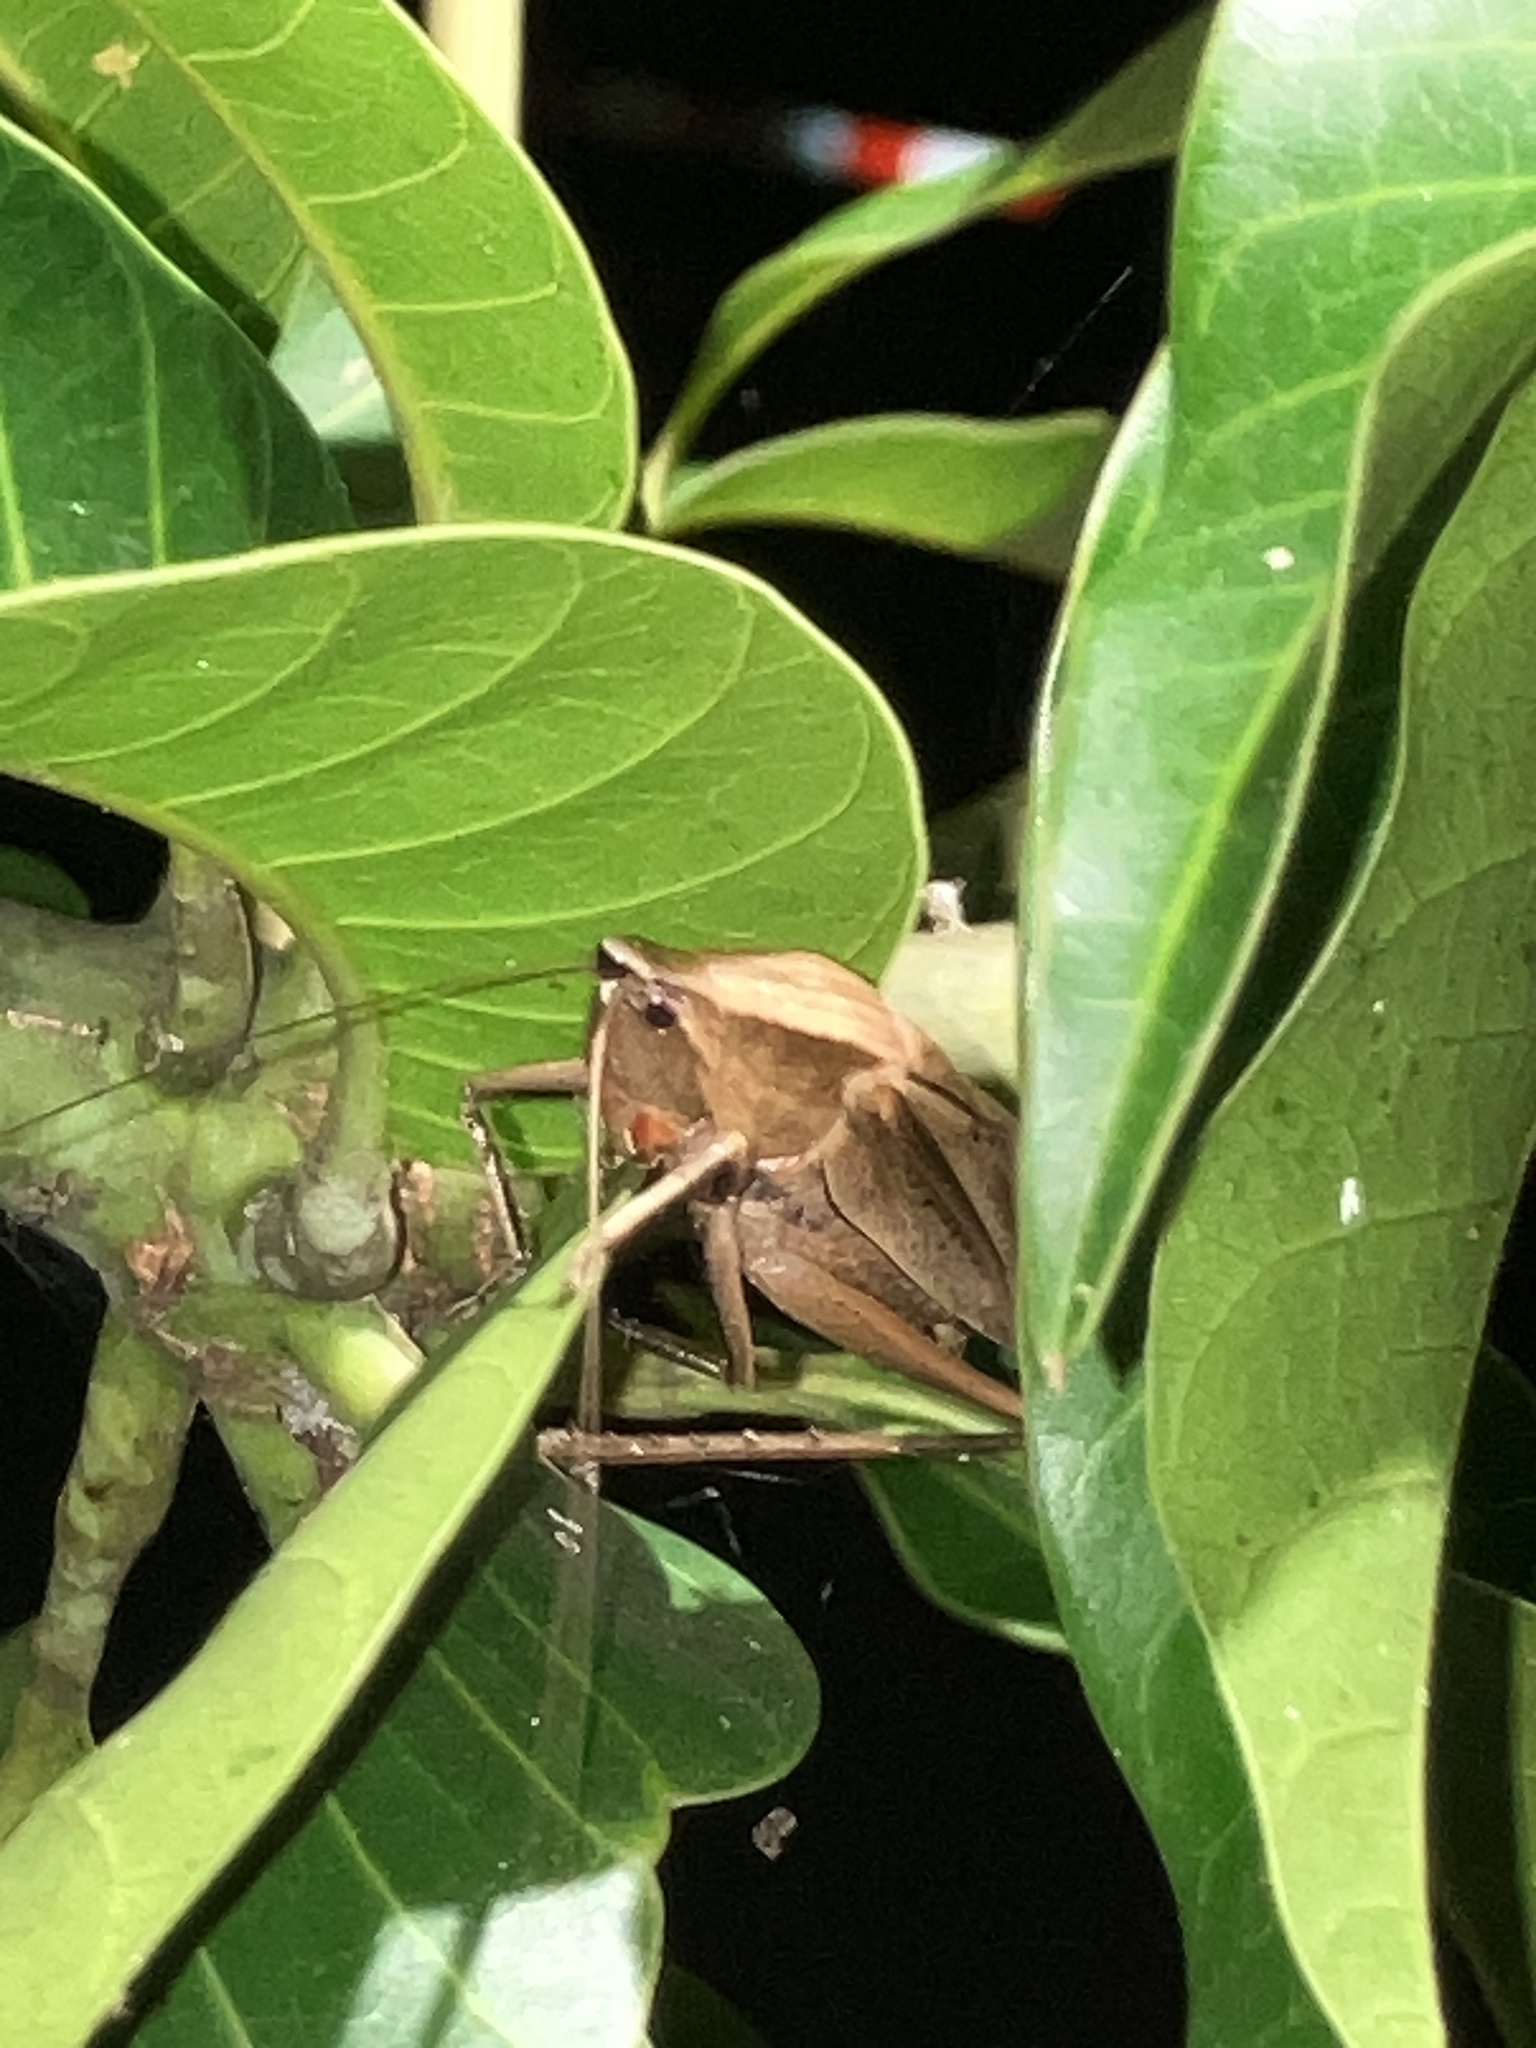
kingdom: Animalia
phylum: Arthropoda
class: Insecta
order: Orthoptera
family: Tettigoniidae
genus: Neoconocephalus
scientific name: Neoconocephalus triops
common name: Broad-tipped conehead
